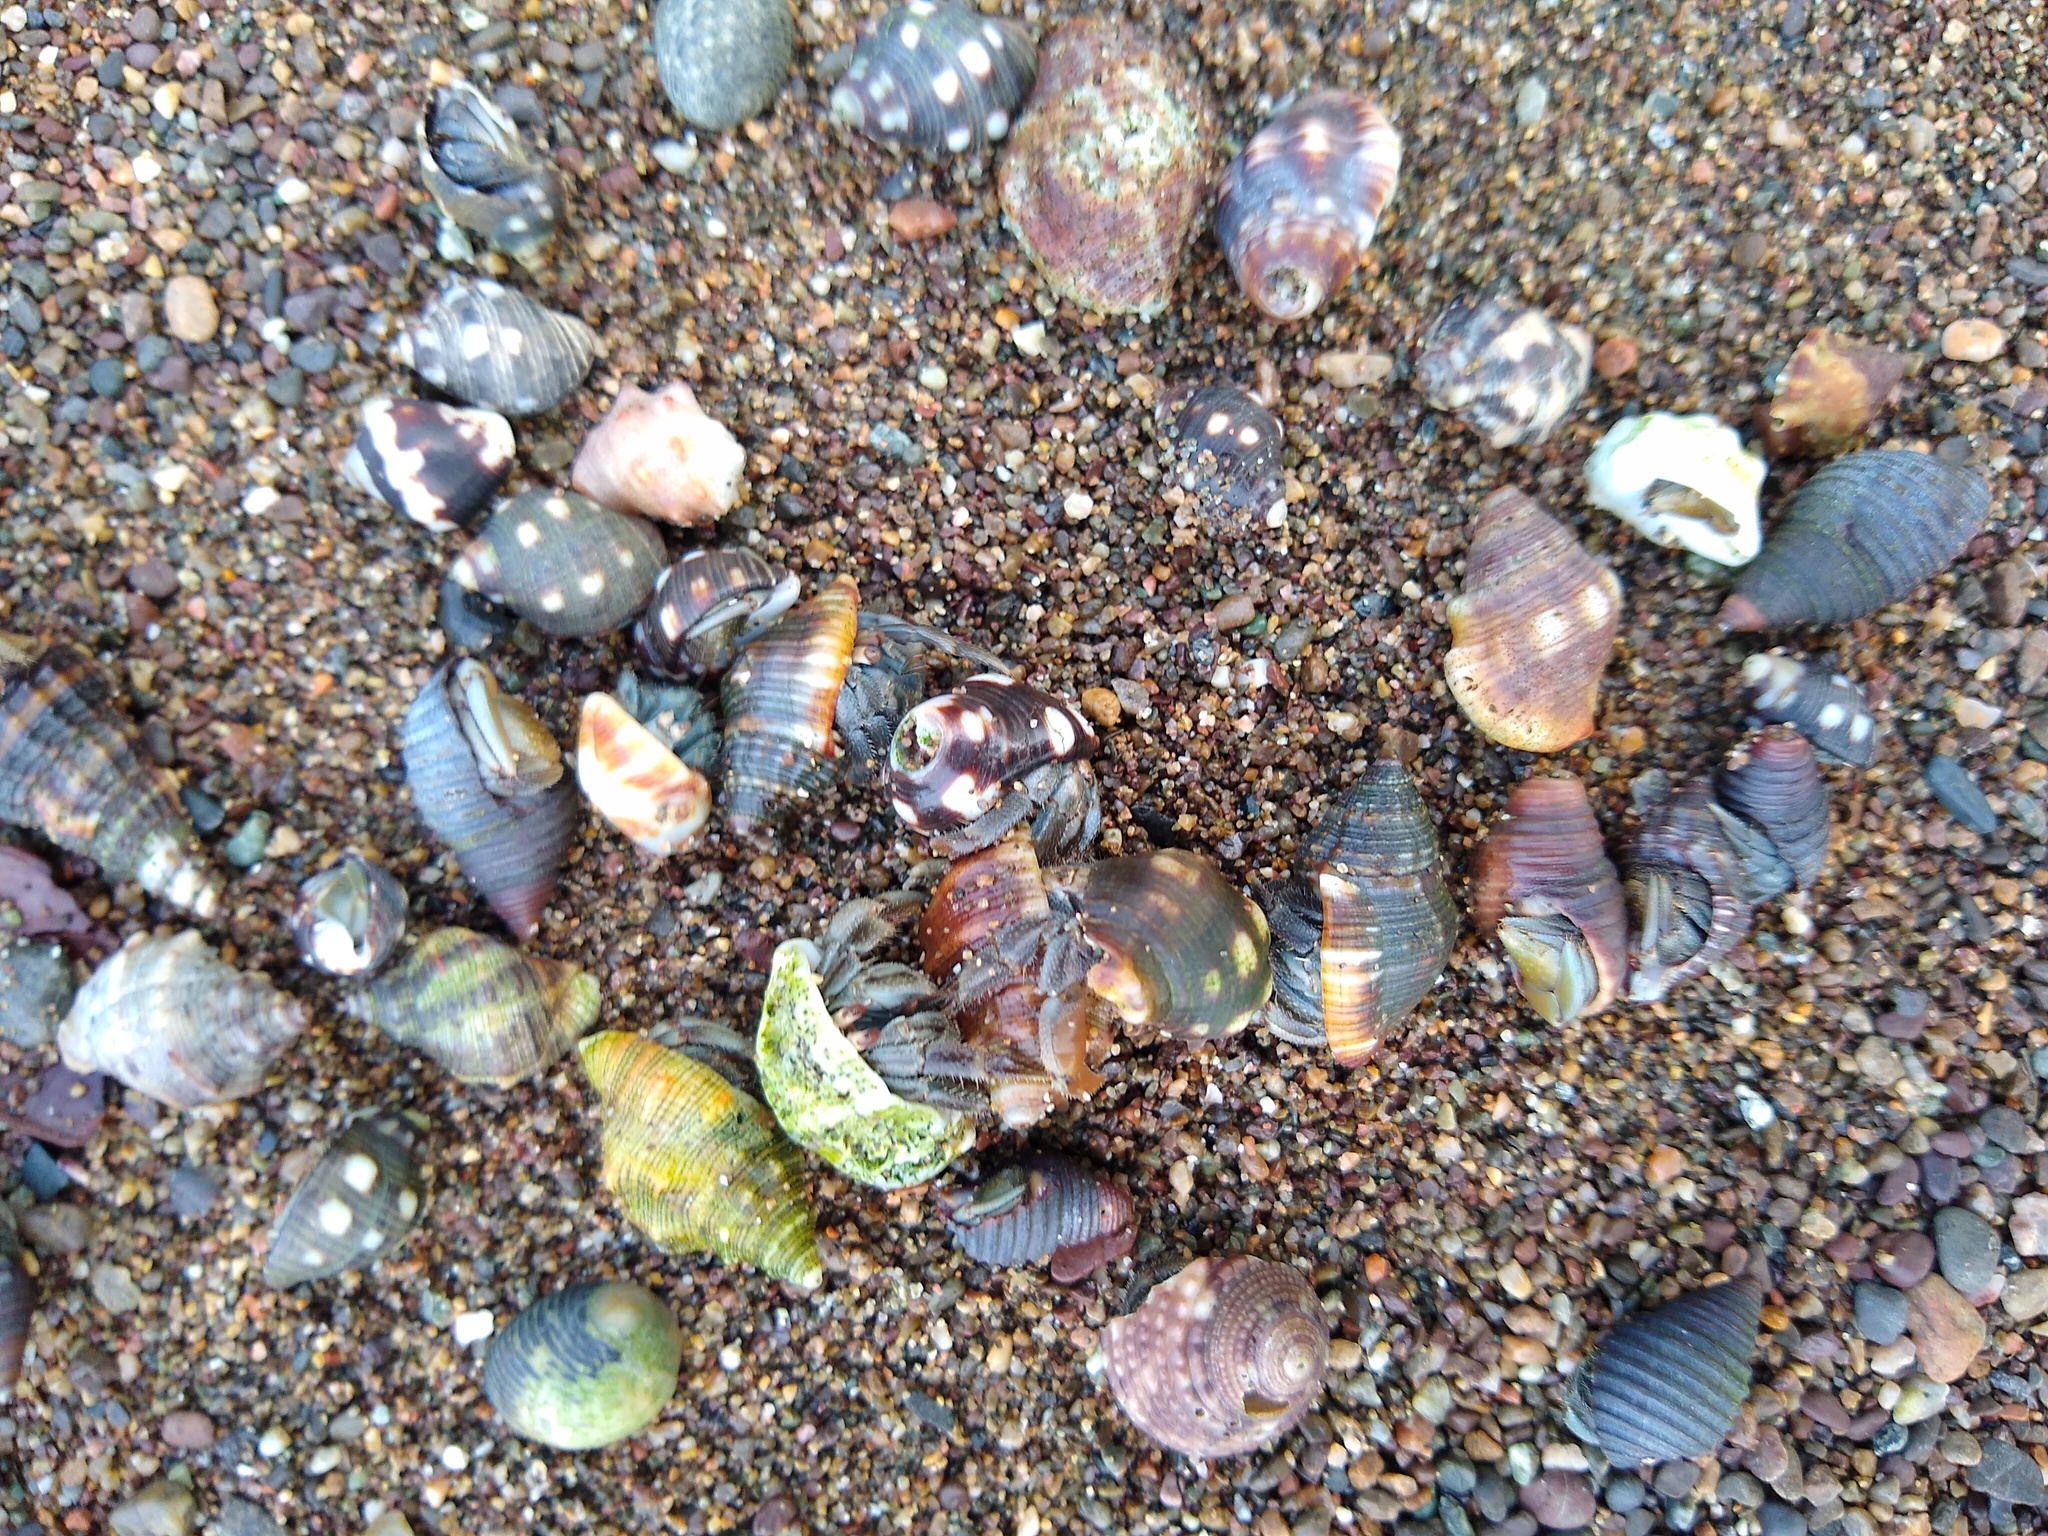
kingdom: Animalia
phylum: Arthropoda
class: Malacostraca
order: Decapoda
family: Coenobitidae
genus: Coenobita
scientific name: Coenobita compressus
